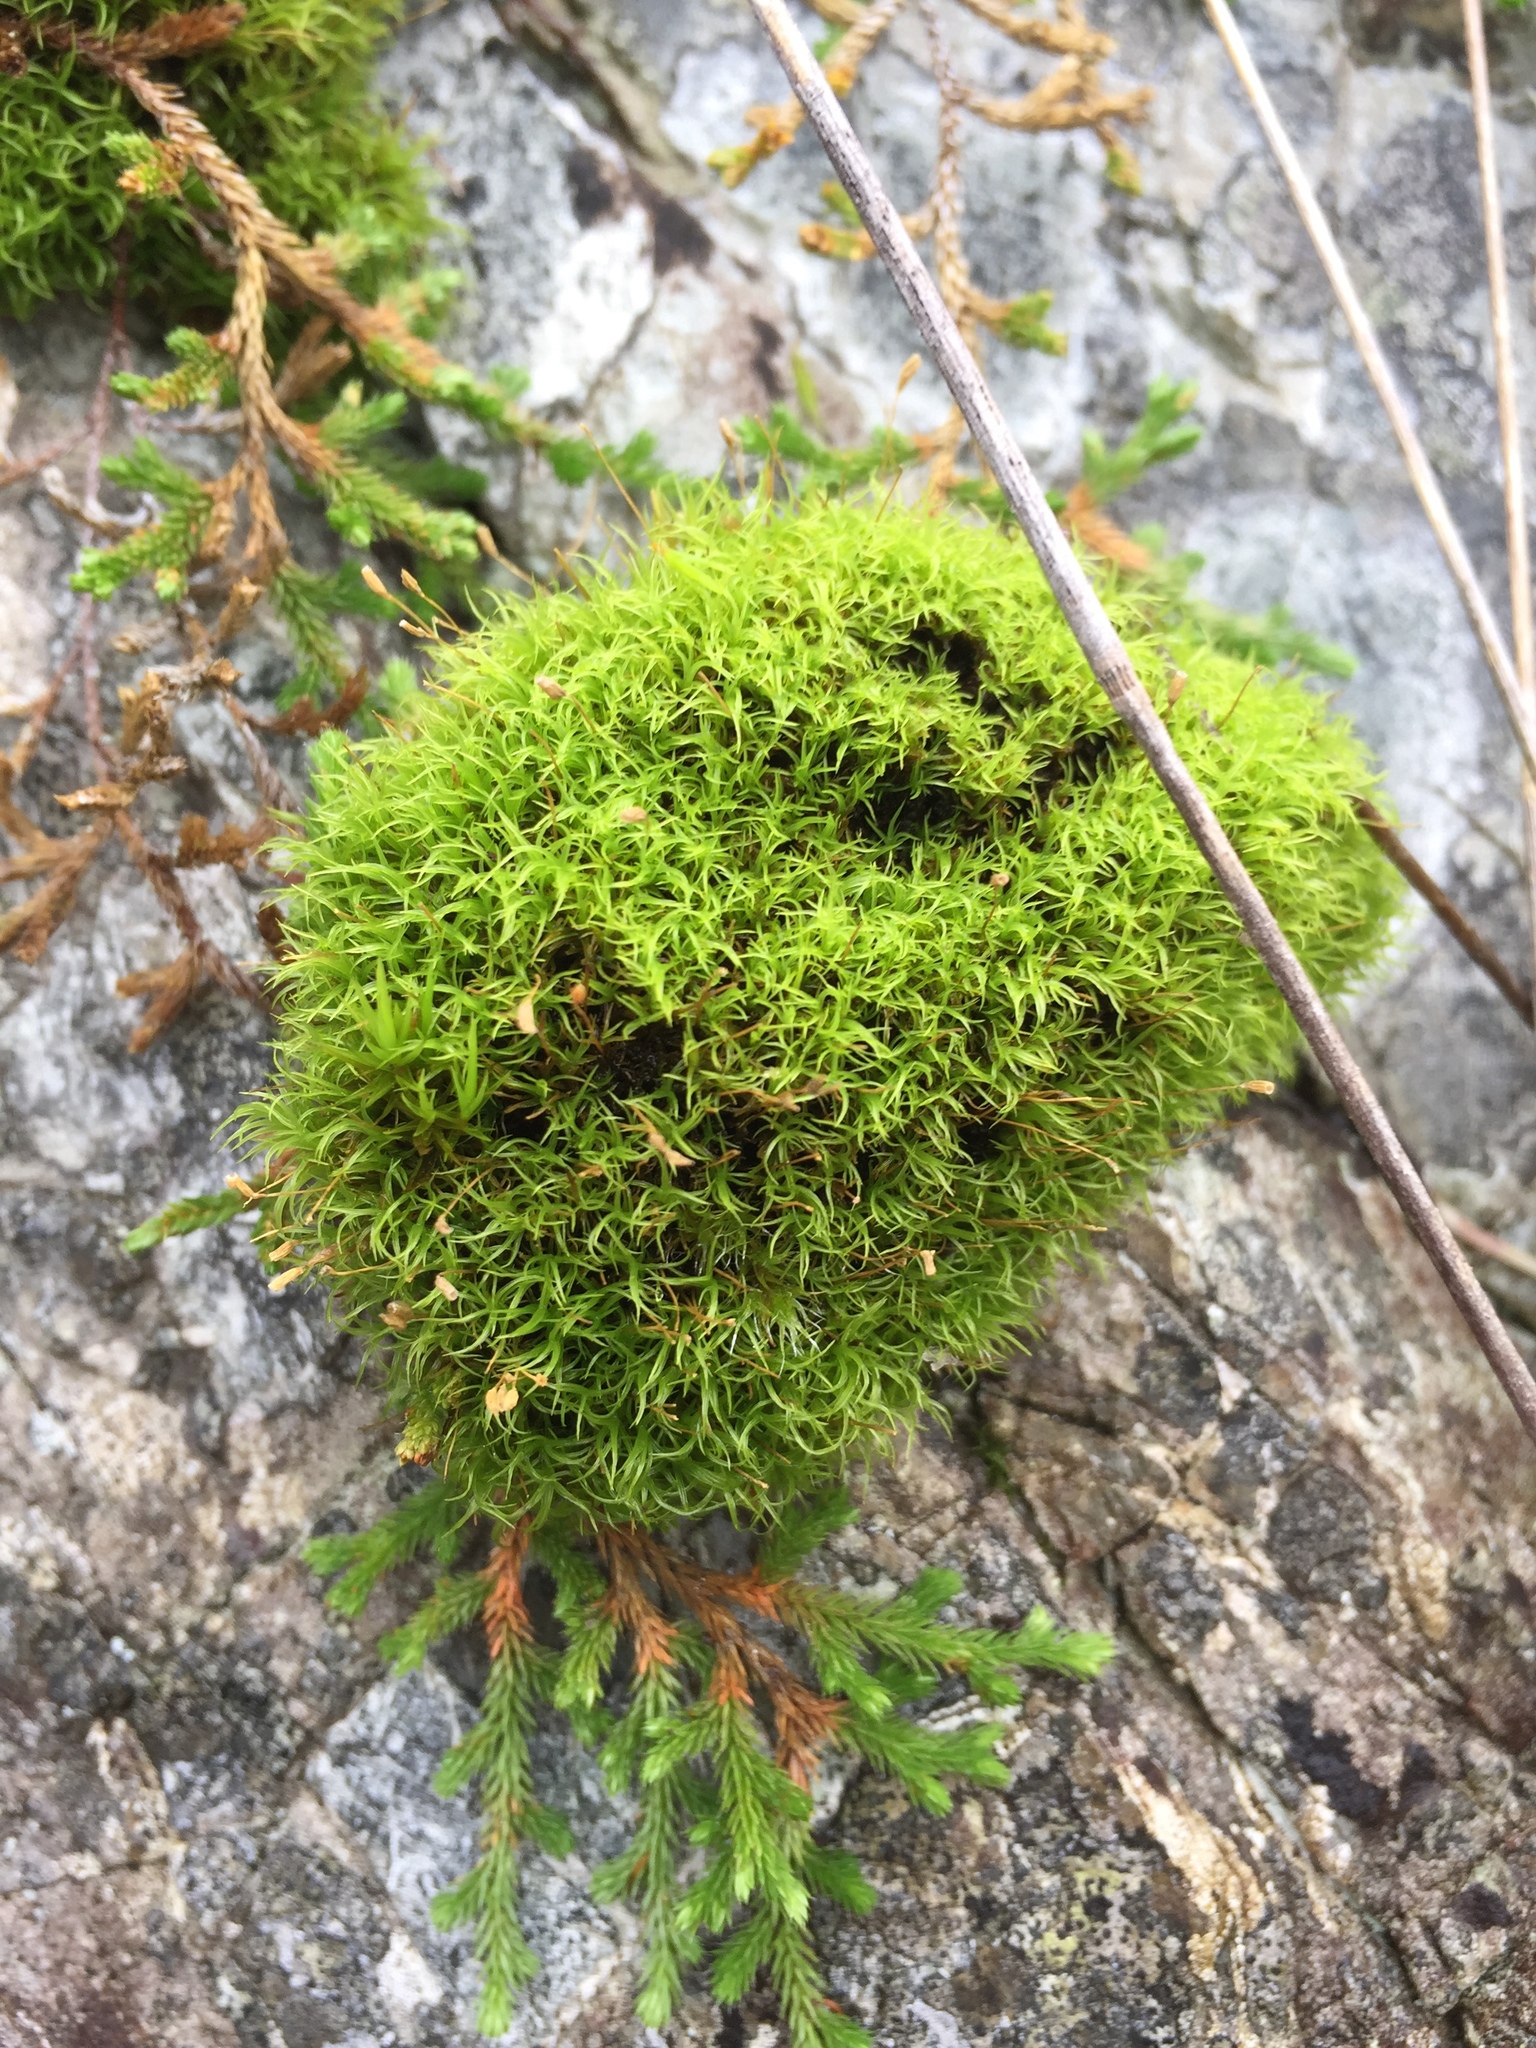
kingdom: Plantae
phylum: Bryophyta
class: Bryopsida
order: Dicranales
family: Rhabdoweisiaceae
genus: Dicranoweisia
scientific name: Dicranoweisia cirrata
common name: Common pincushion
